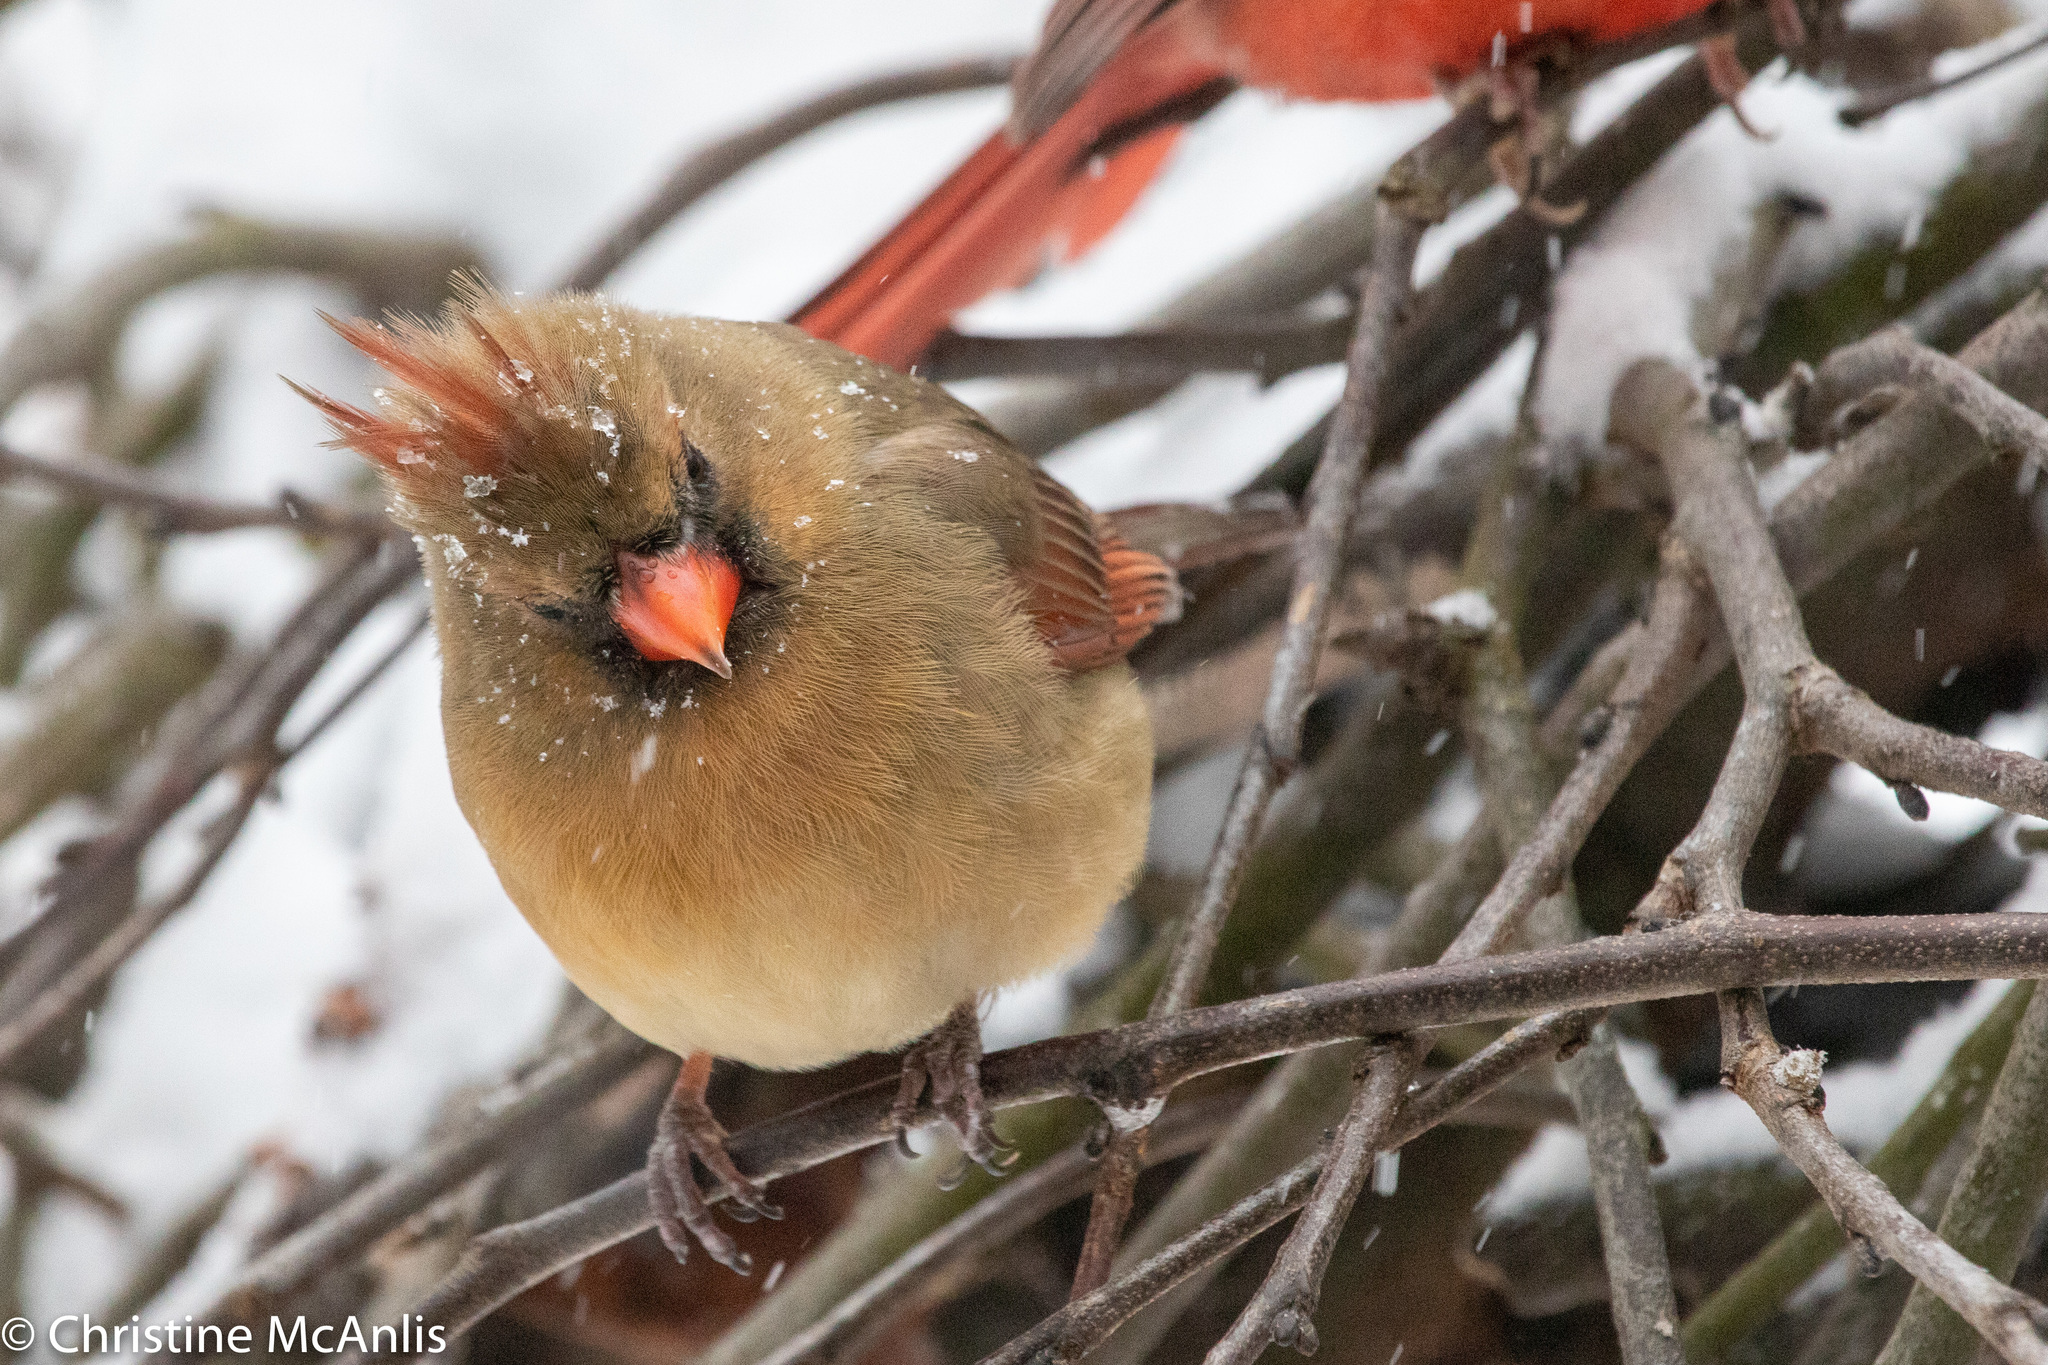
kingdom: Animalia
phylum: Chordata
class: Aves
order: Passeriformes
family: Cardinalidae
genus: Cardinalis
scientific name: Cardinalis cardinalis
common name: Northern cardinal
